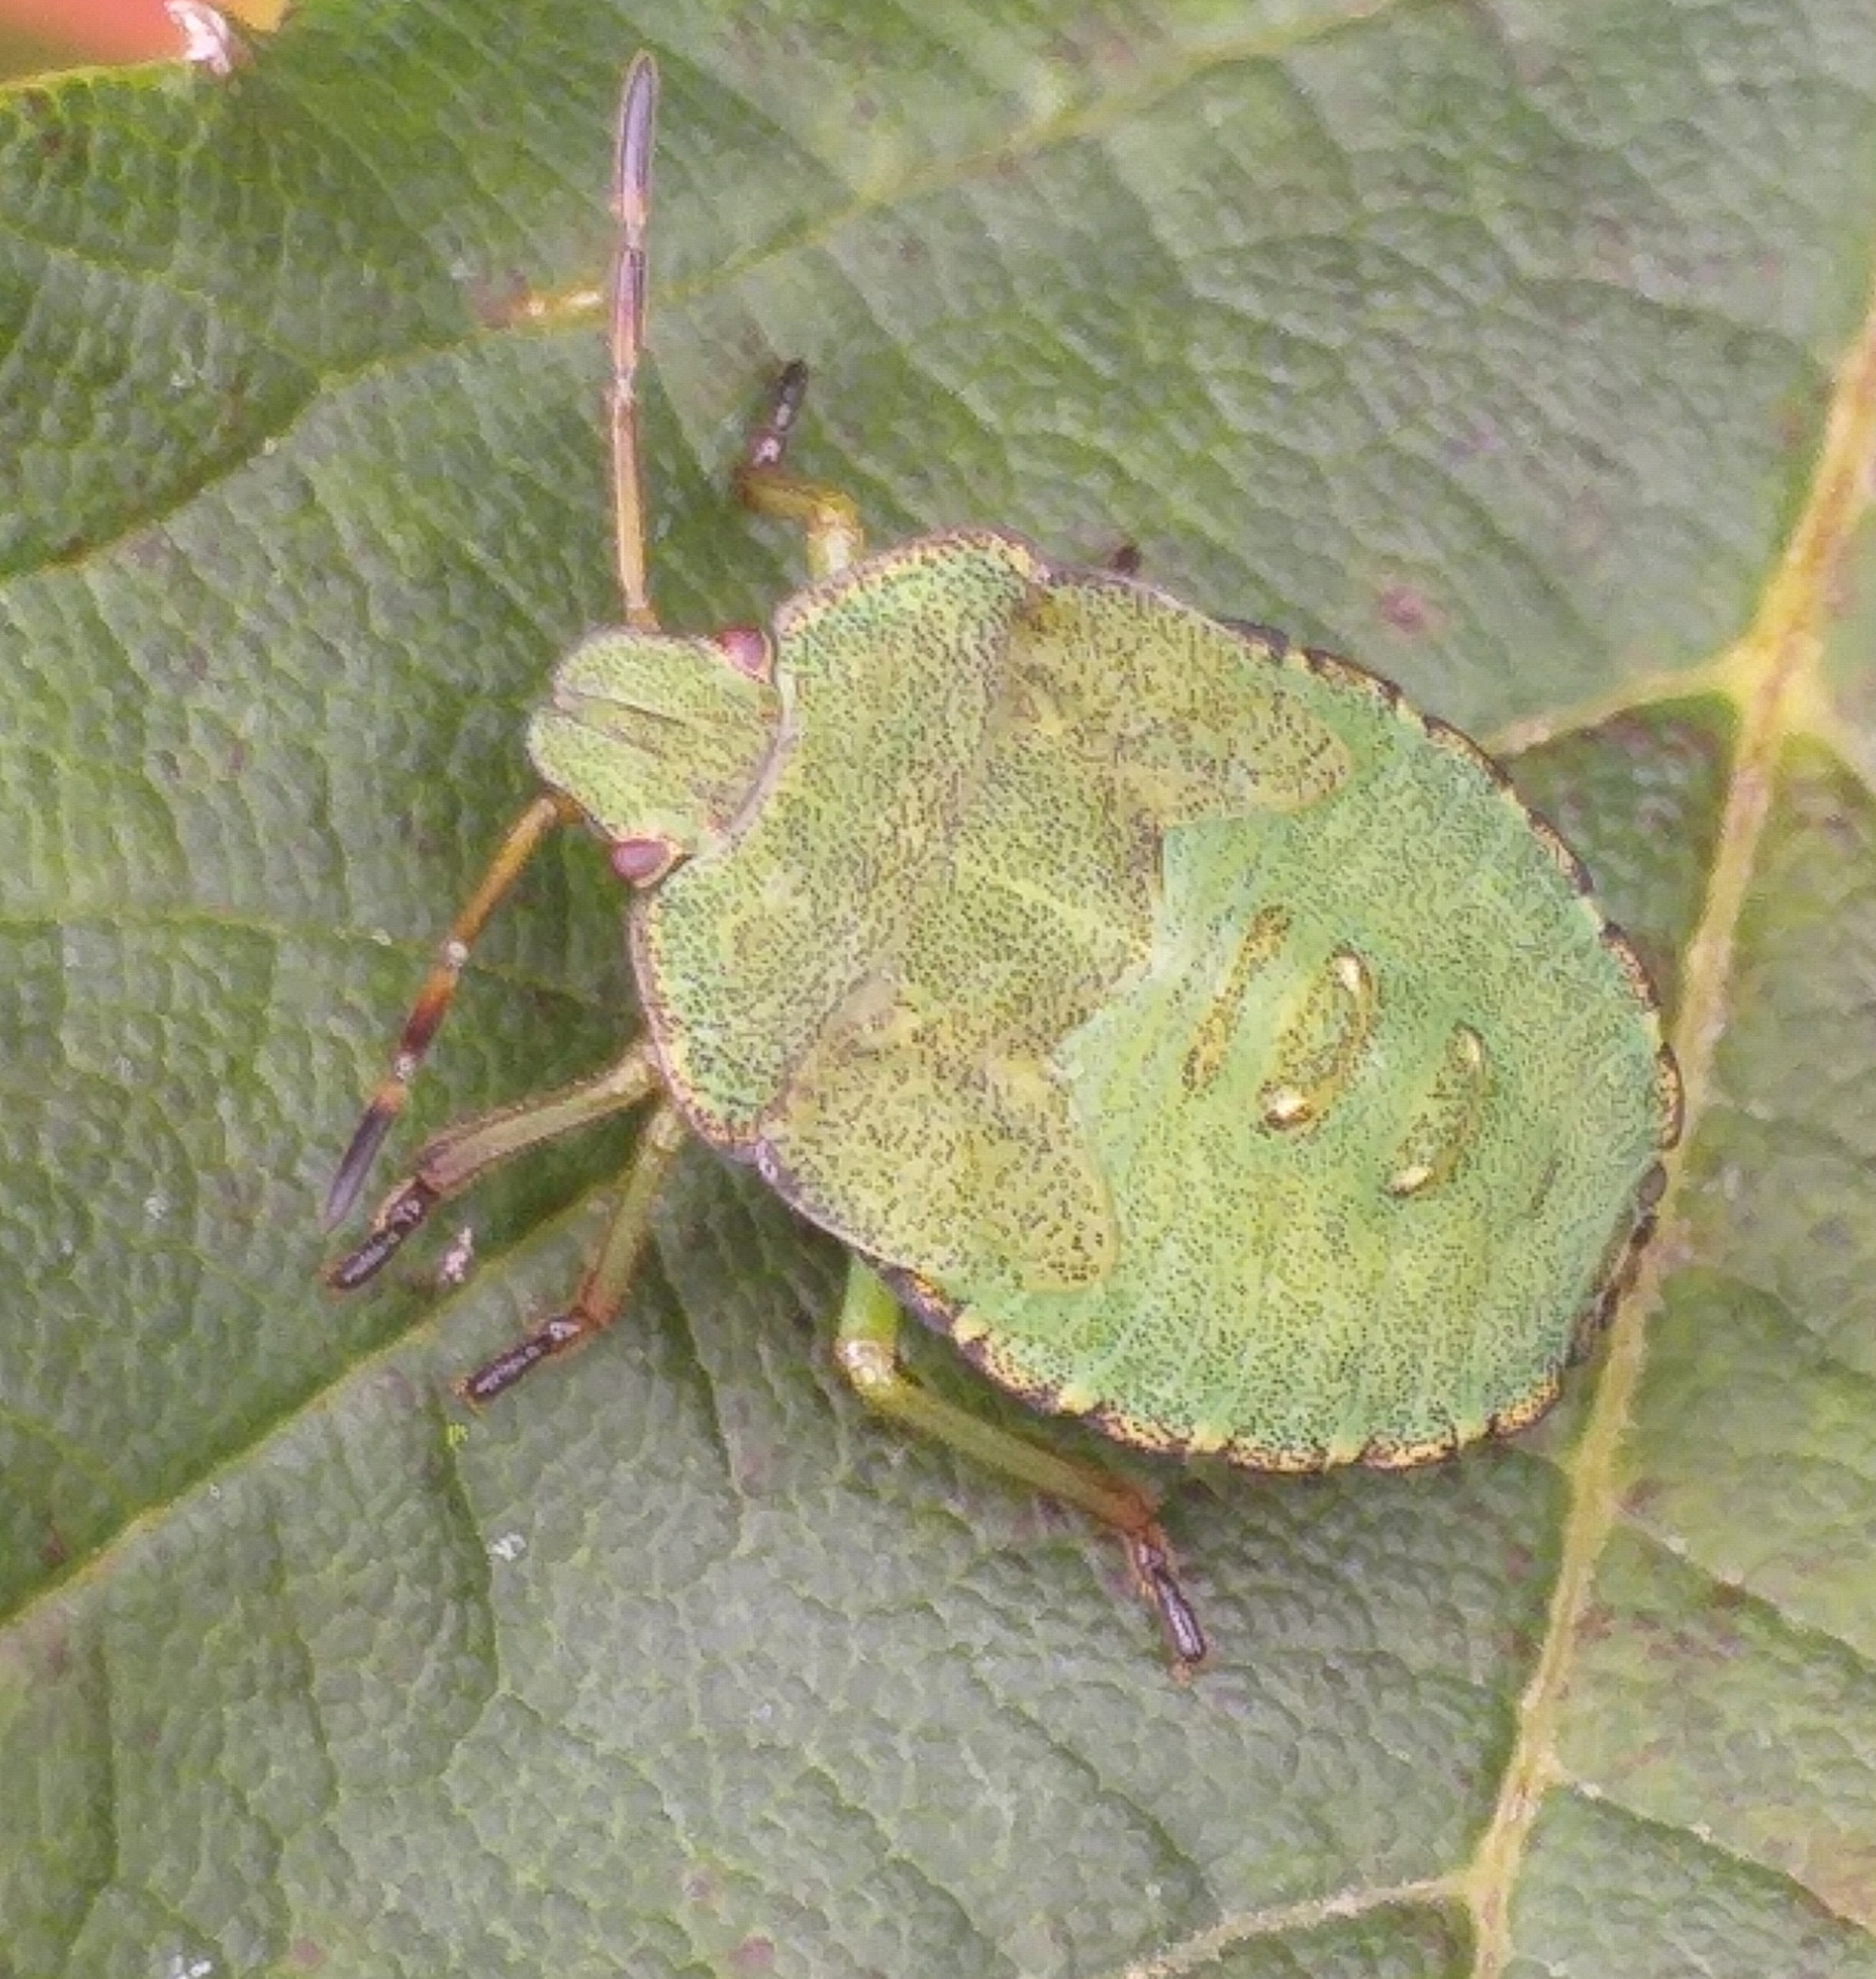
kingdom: Animalia
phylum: Arthropoda
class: Insecta
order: Hemiptera
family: Pentatomidae
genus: Palomena
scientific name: Palomena prasina
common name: Green shieldbug
